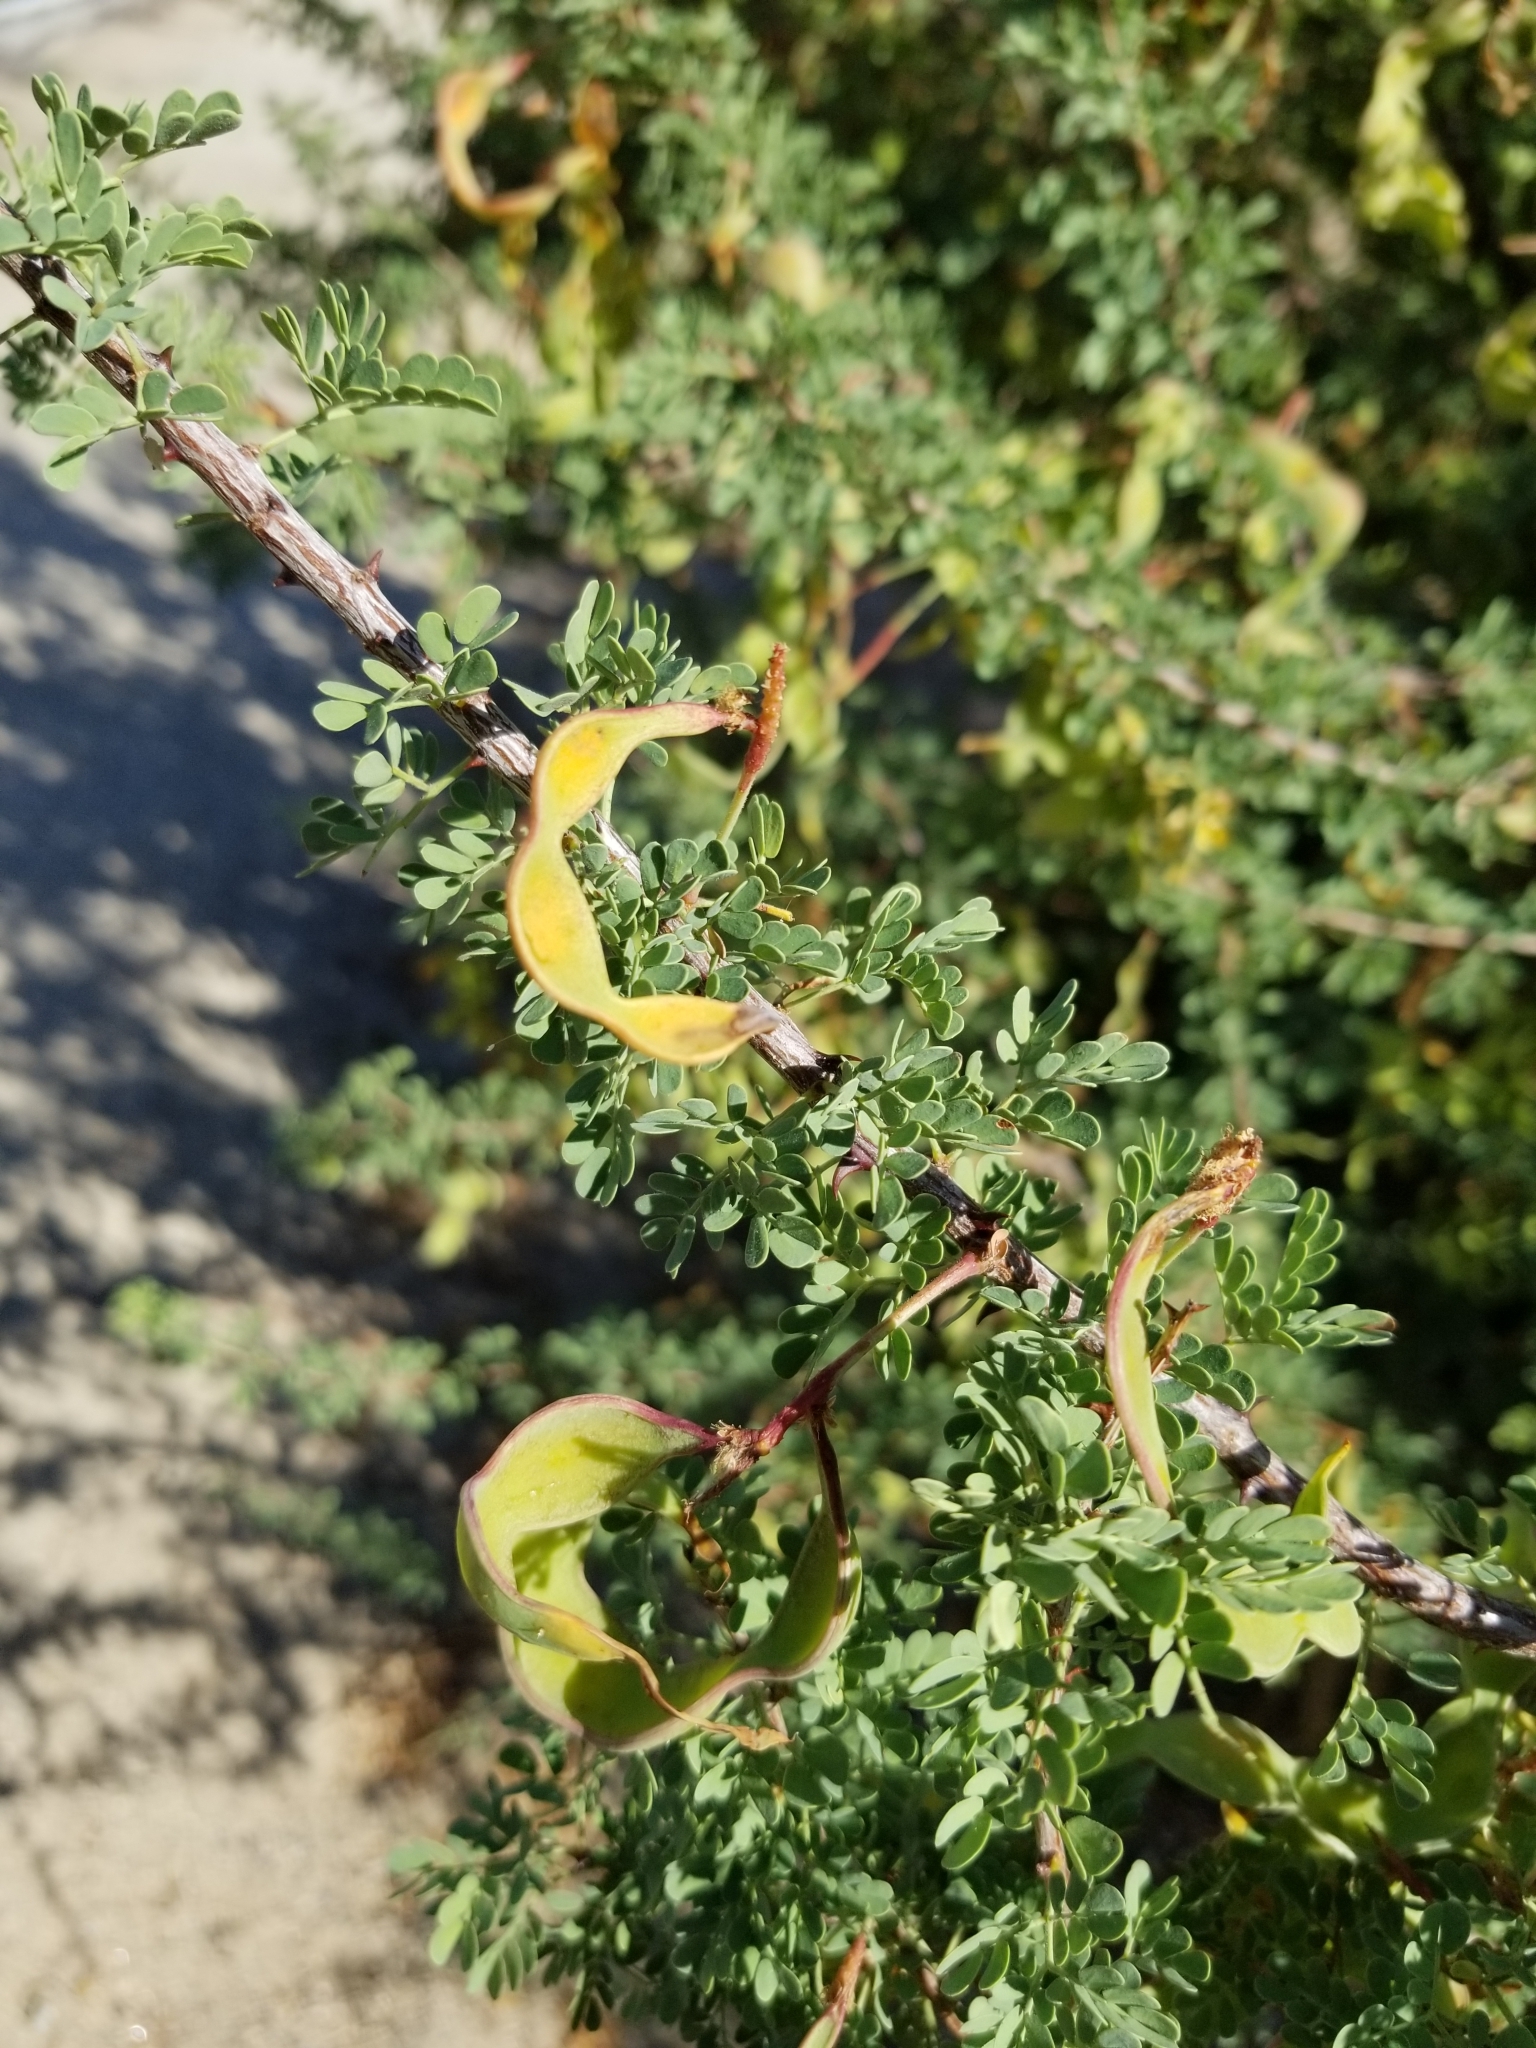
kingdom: Plantae
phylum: Tracheophyta
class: Magnoliopsida
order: Fabales
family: Fabaceae
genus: Senegalia
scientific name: Senegalia greggii
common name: Texas-mimosa
